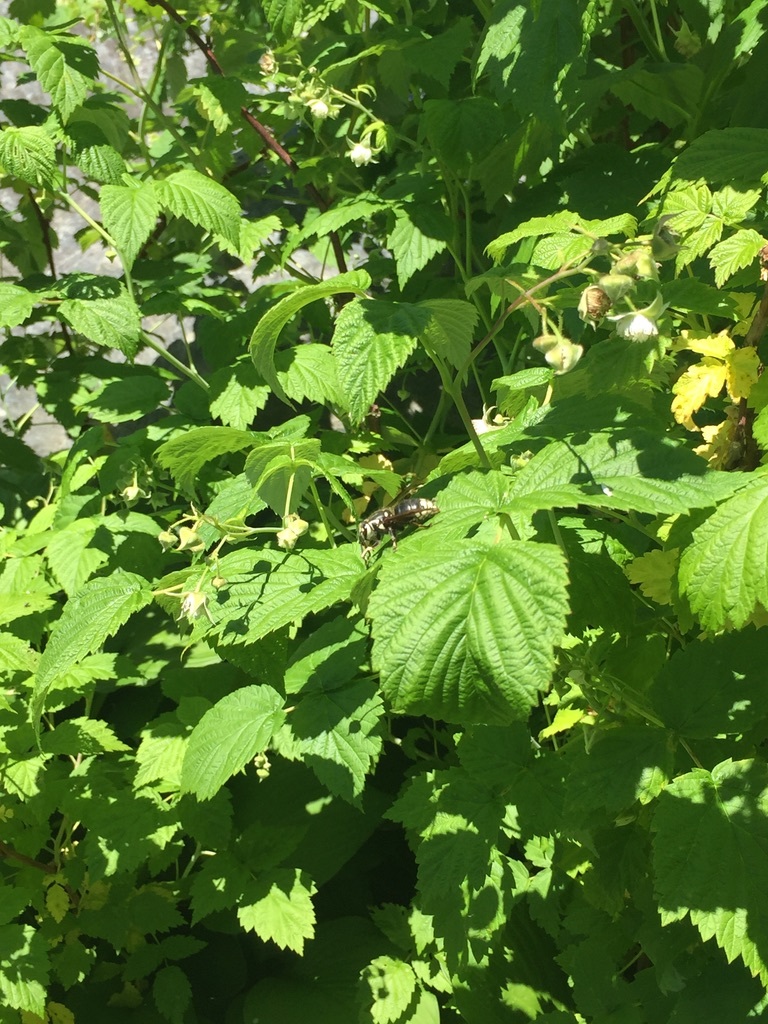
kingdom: Animalia
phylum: Arthropoda
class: Insecta
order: Hymenoptera
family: Vespidae
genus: Dolichovespula
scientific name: Dolichovespula maculata
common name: Bald-faced hornet
